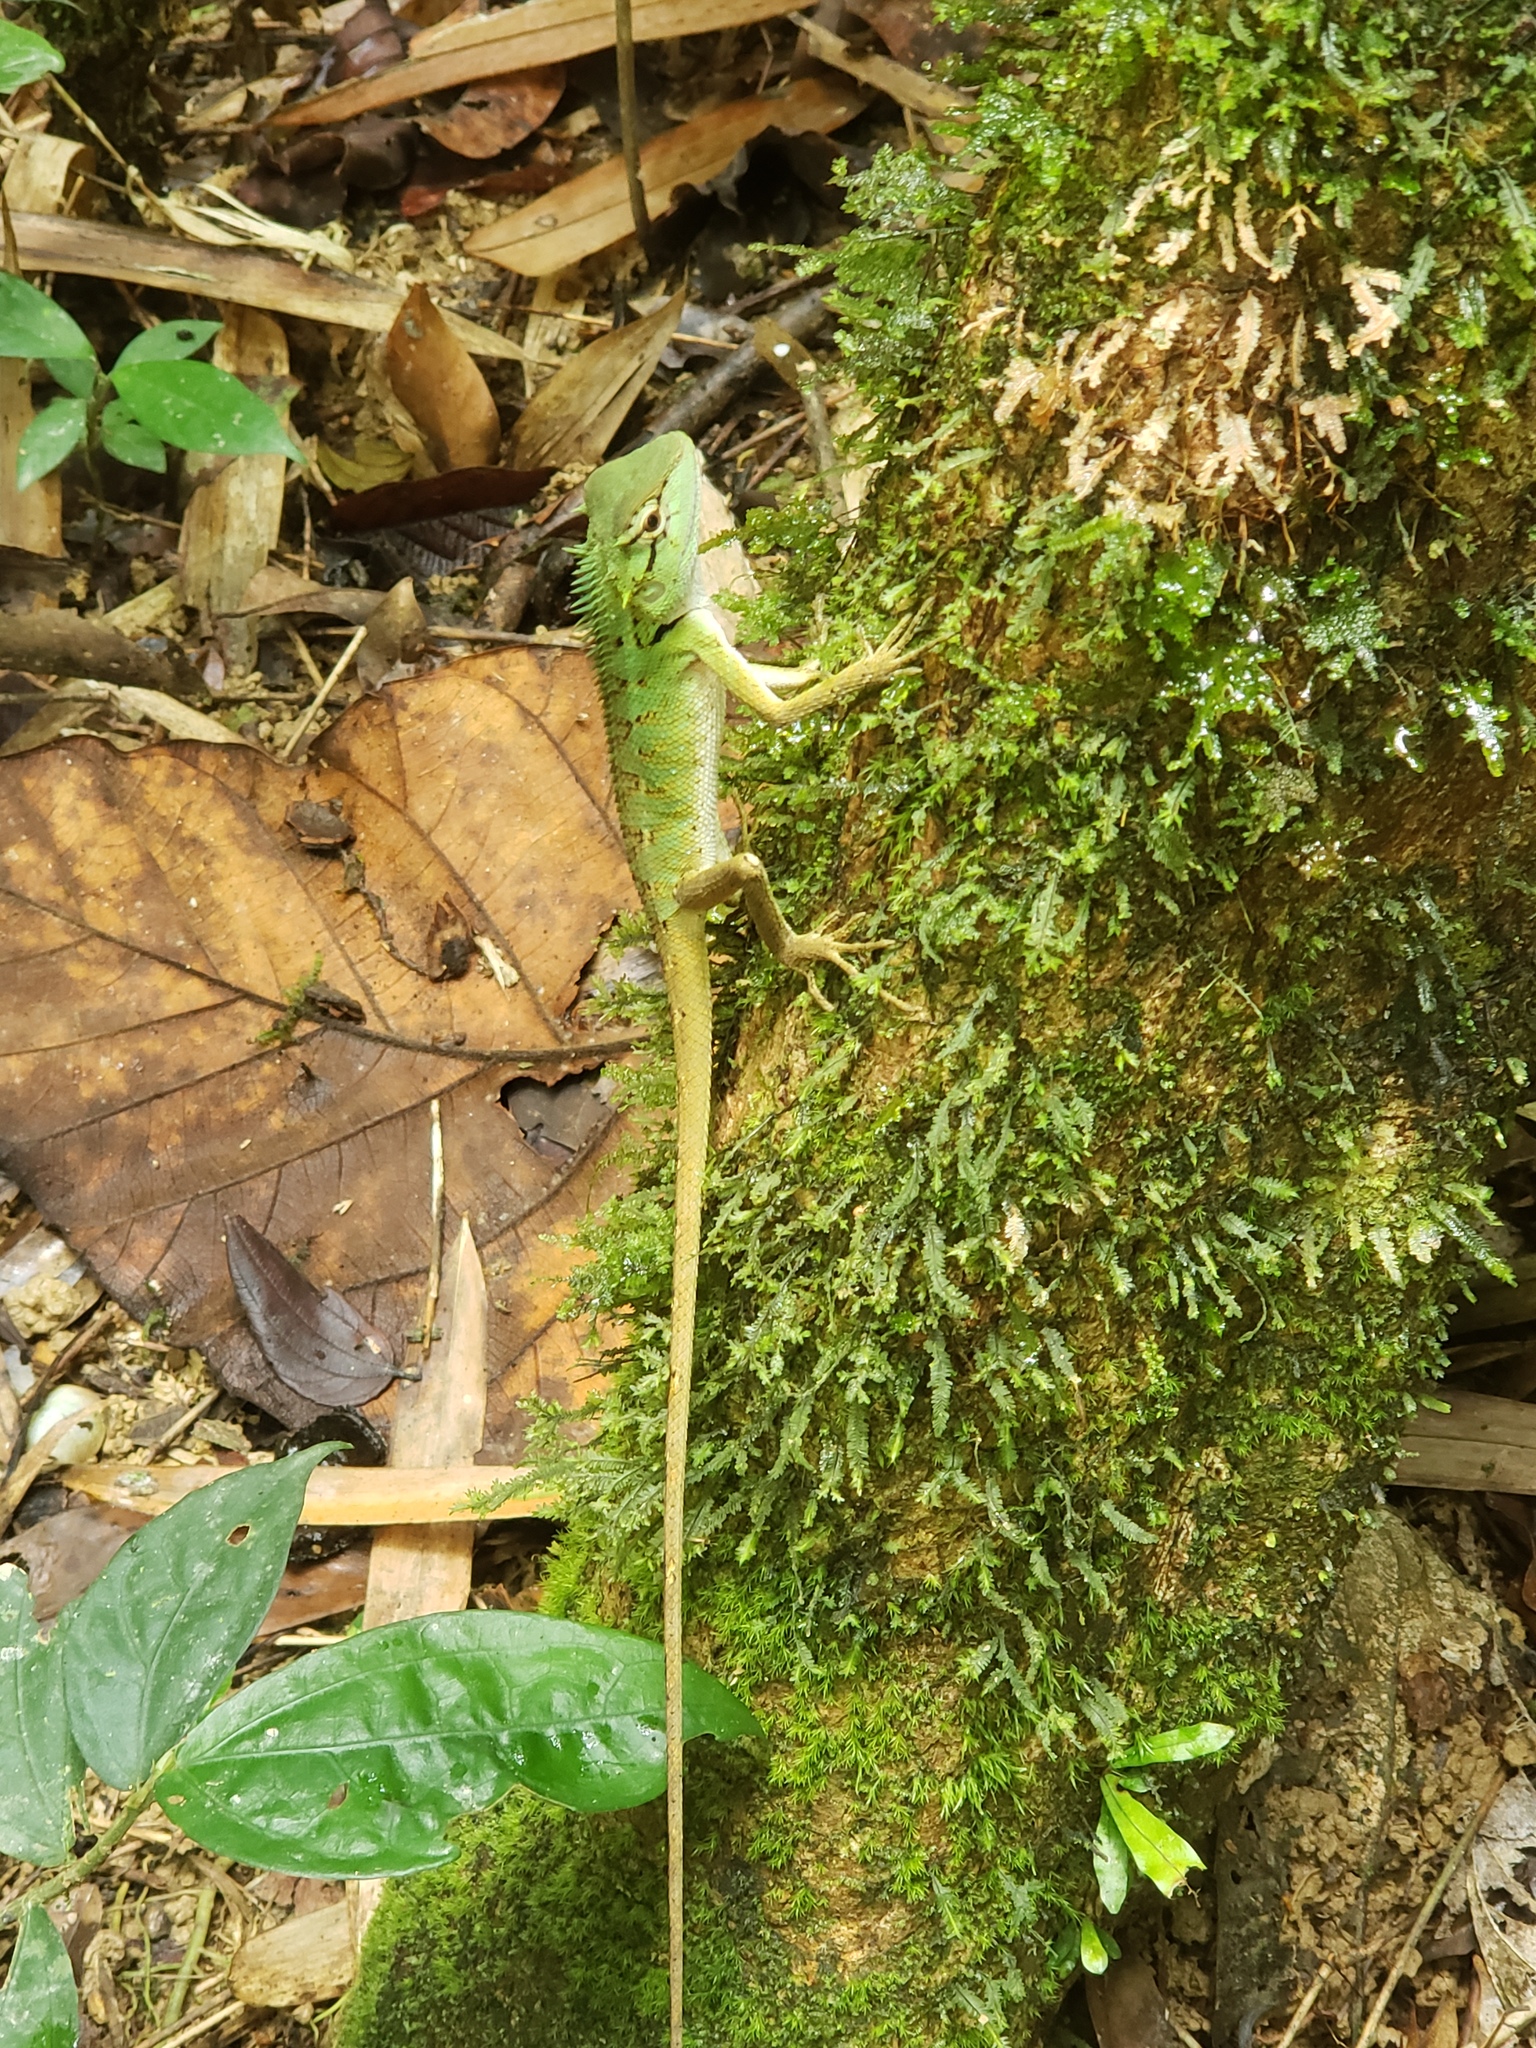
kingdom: Animalia
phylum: Chordata
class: Squamata
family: Agamidae
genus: Calotes
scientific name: Calotes emma
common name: Thailand bloodsucker
